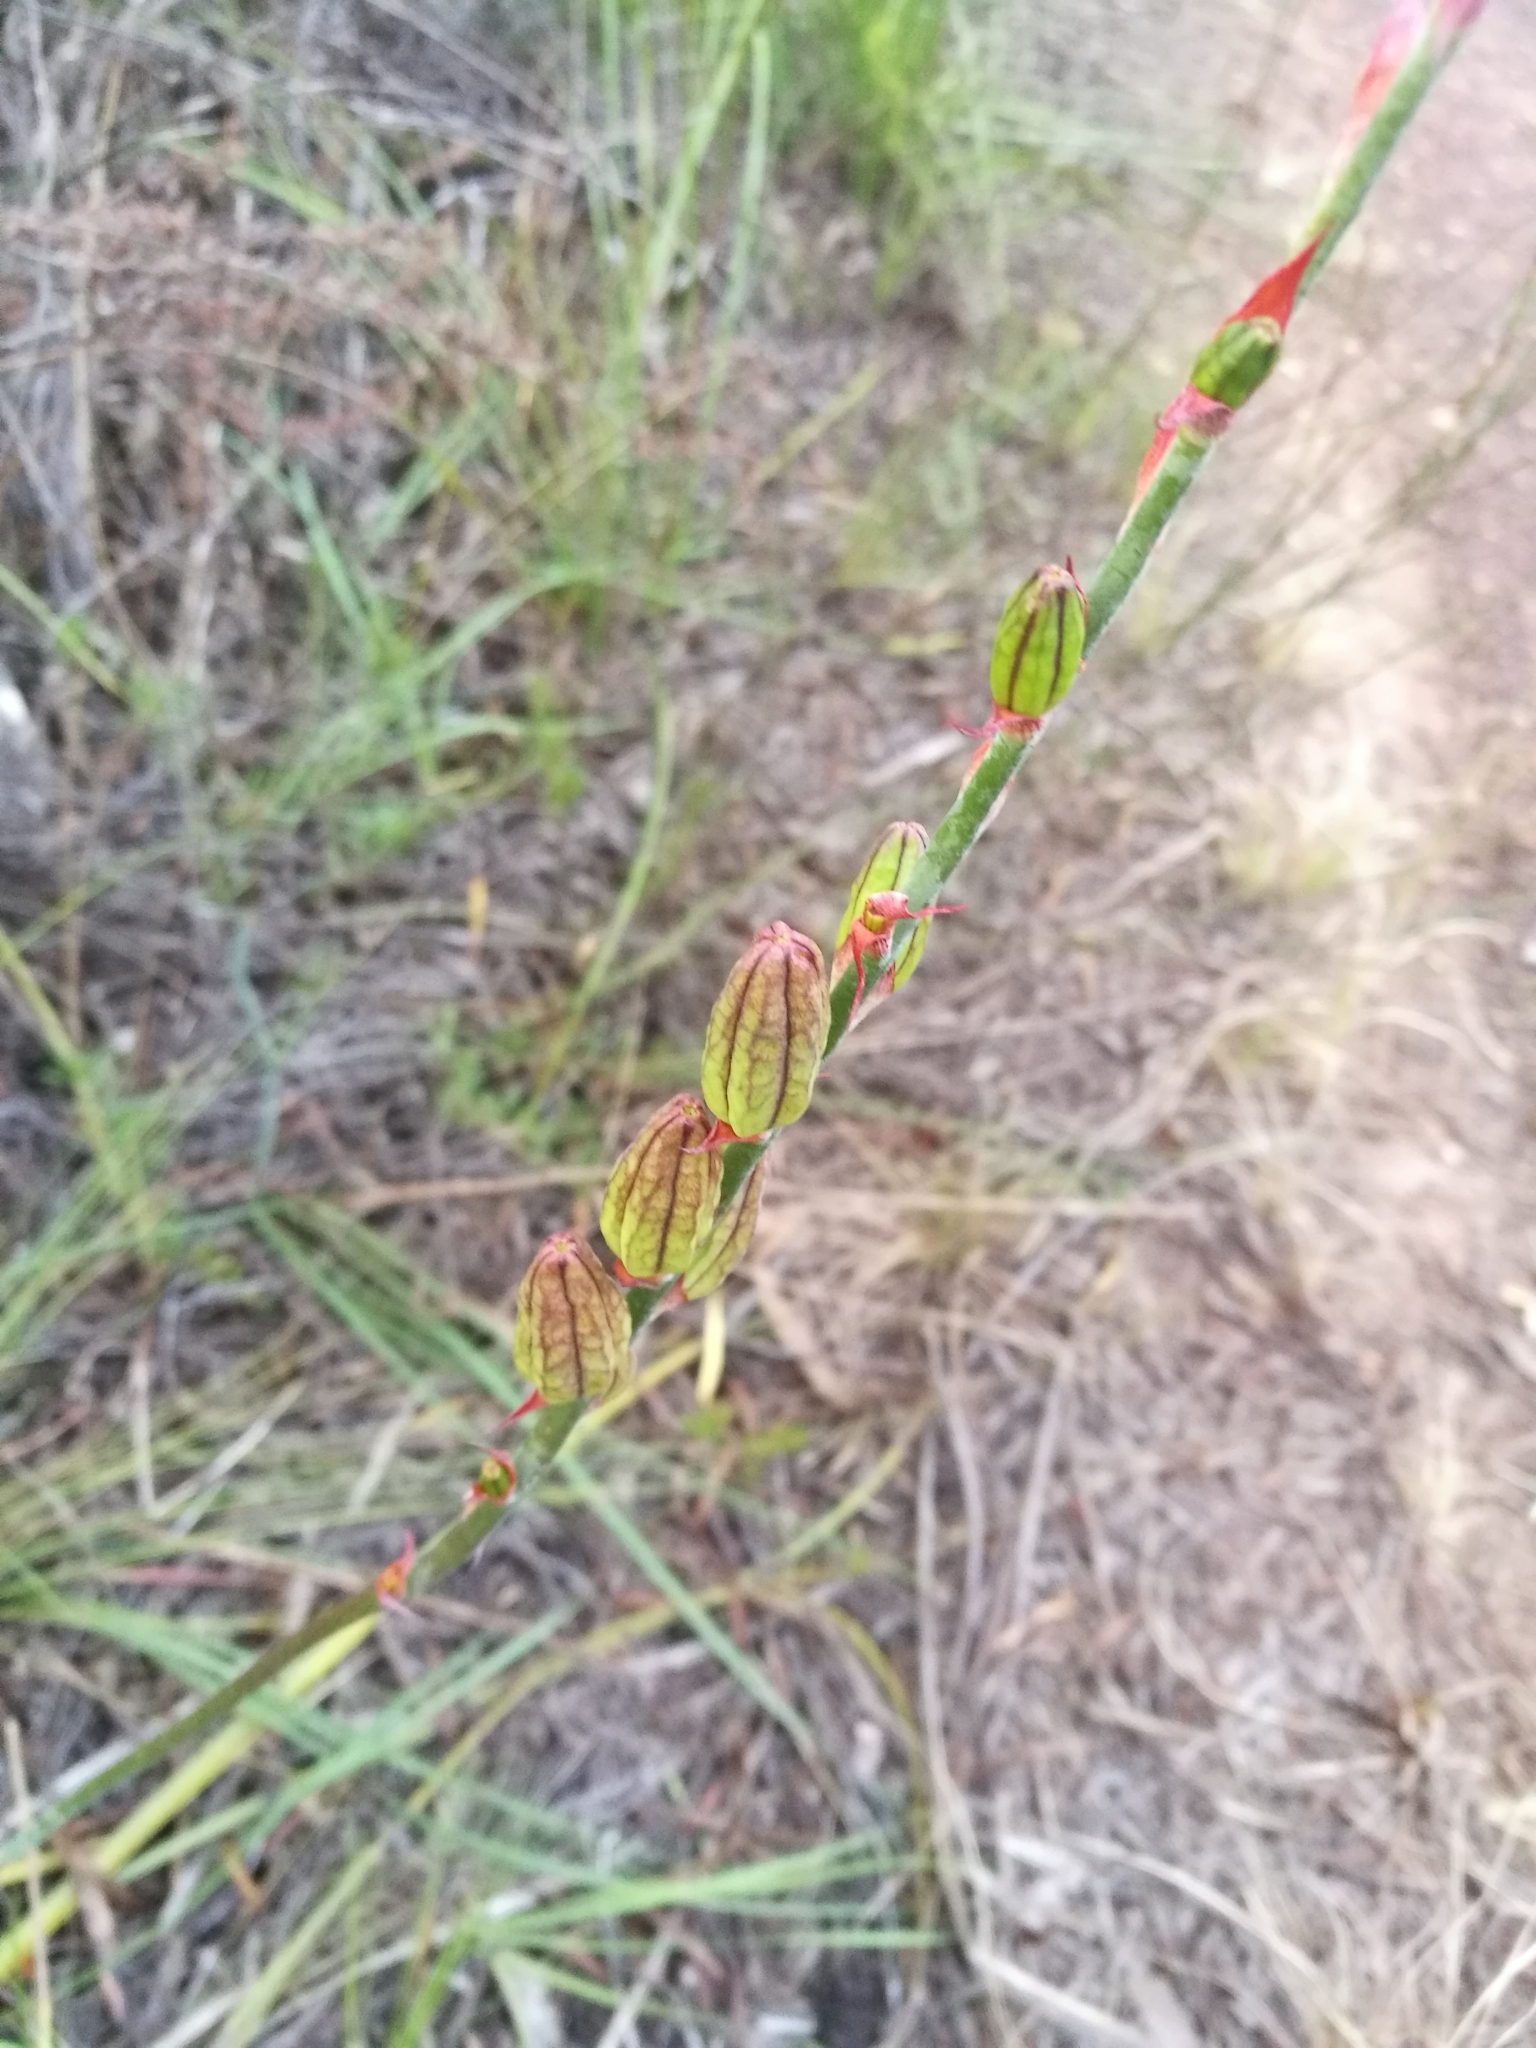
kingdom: Plantae
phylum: Tracheophyta
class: Liliopsida
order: Asparagales
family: Iridaceae
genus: Tritoniopsis
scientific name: Tritoniopsis caffra
